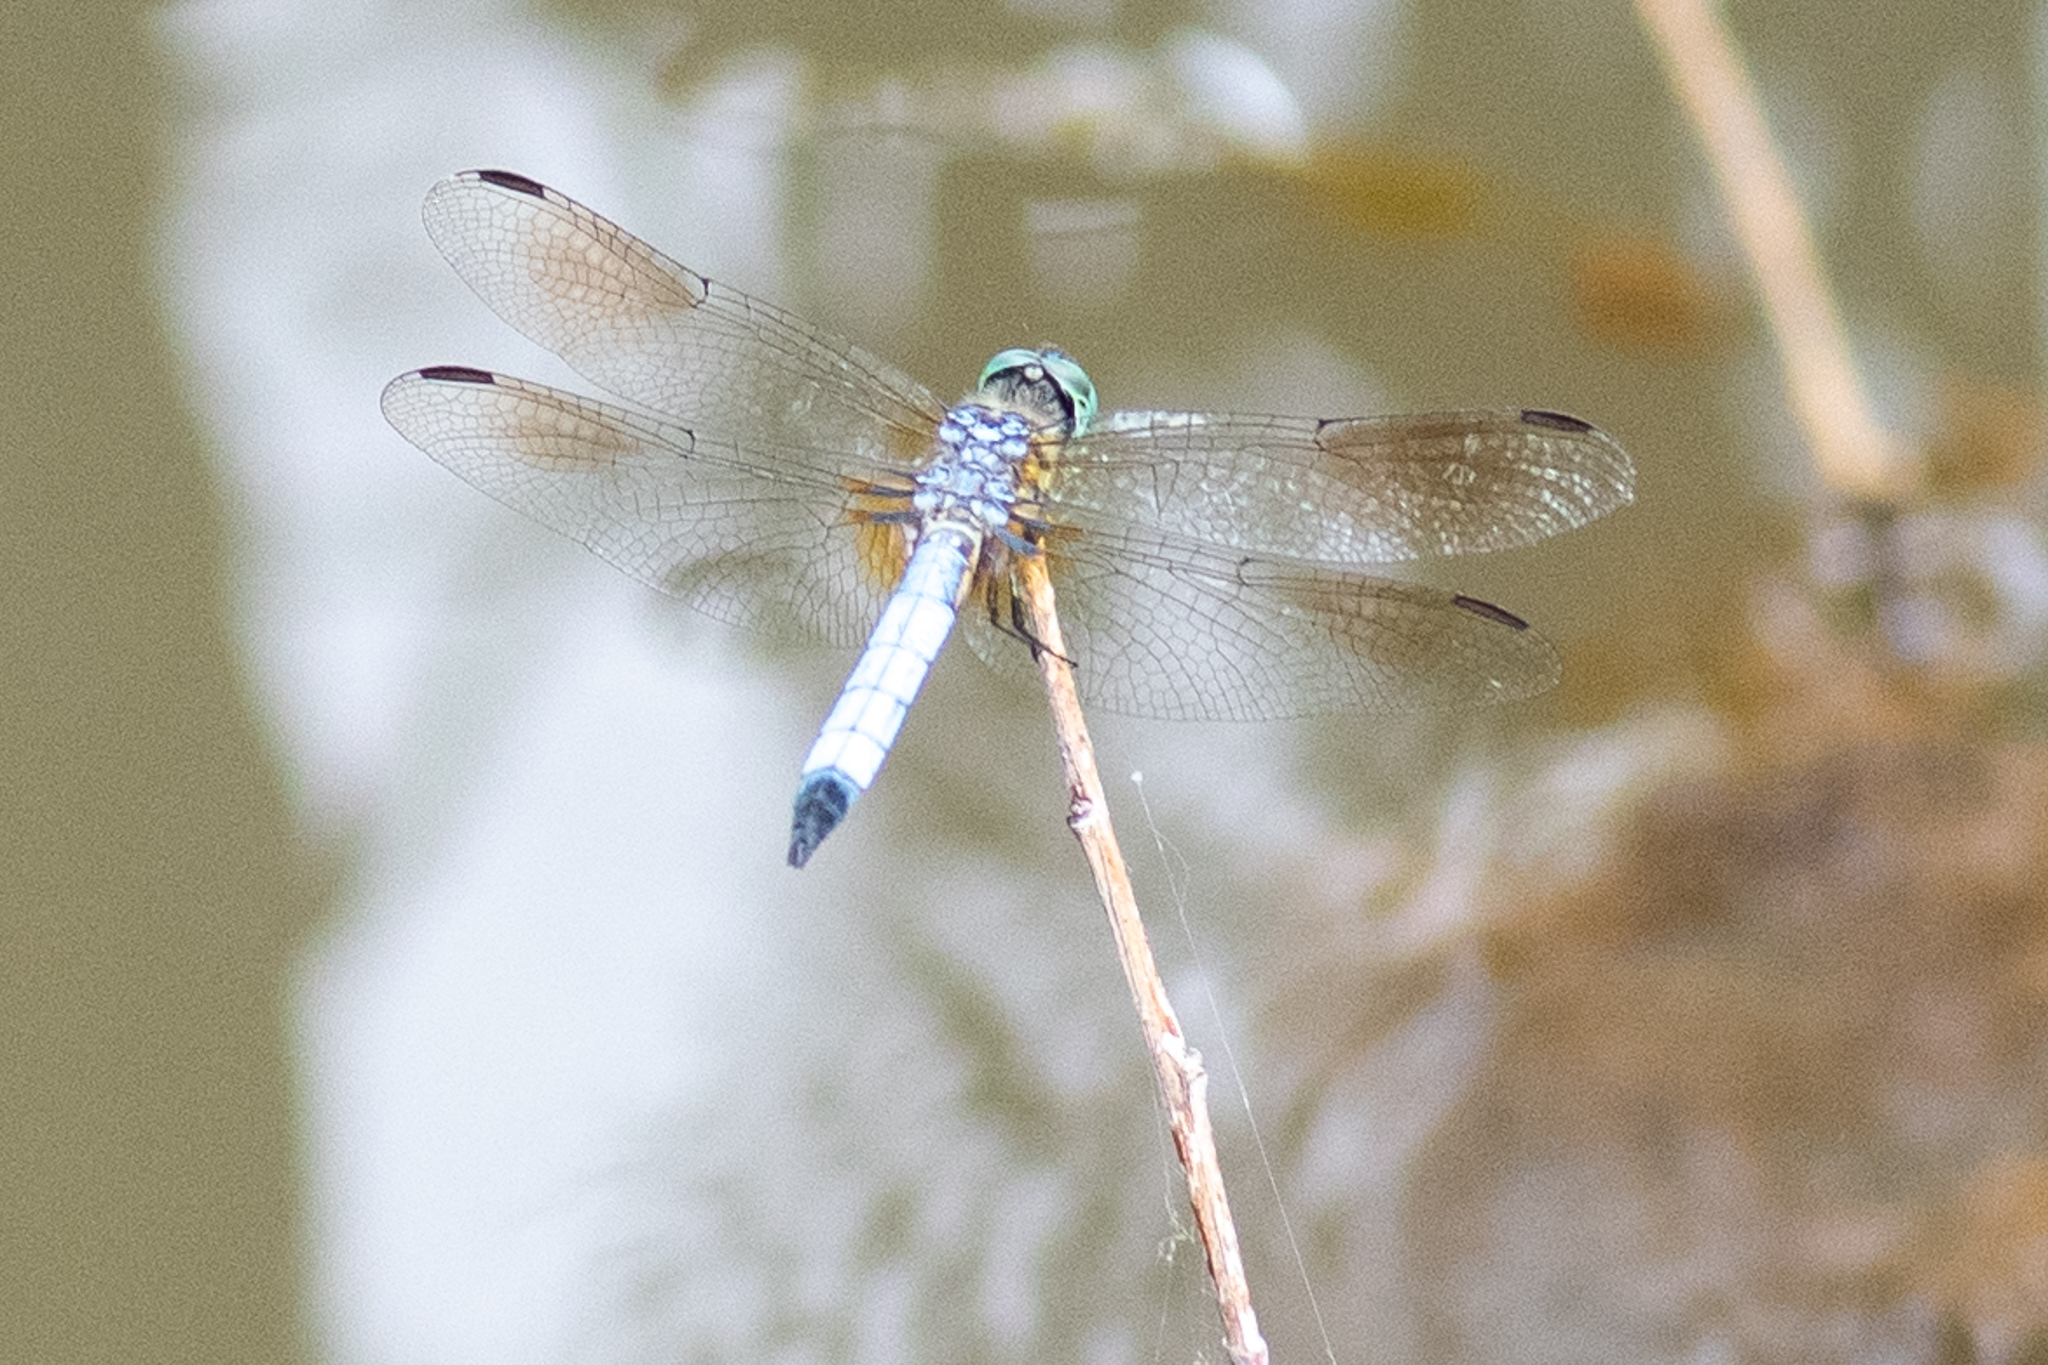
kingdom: Animalia
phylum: Arthropoda
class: Insecta
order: Odonata
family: Libellulidae
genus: Pachydiplax
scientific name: Pachydiplax longipennis
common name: Blue dasher
